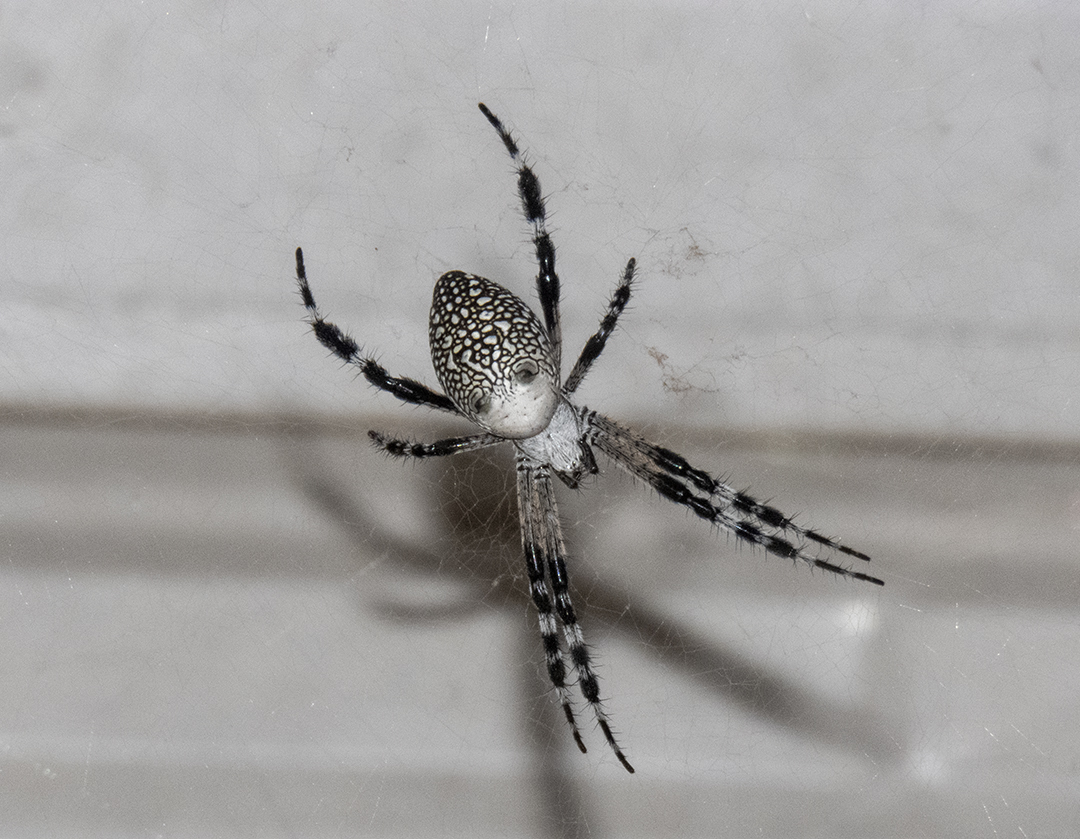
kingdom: Chromista
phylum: Ochrophyta
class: Dictyochophyceae
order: Pedinellales
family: Cyrtophoraceae
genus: Cyrtophora
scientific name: Cyrtophora moluccensis
